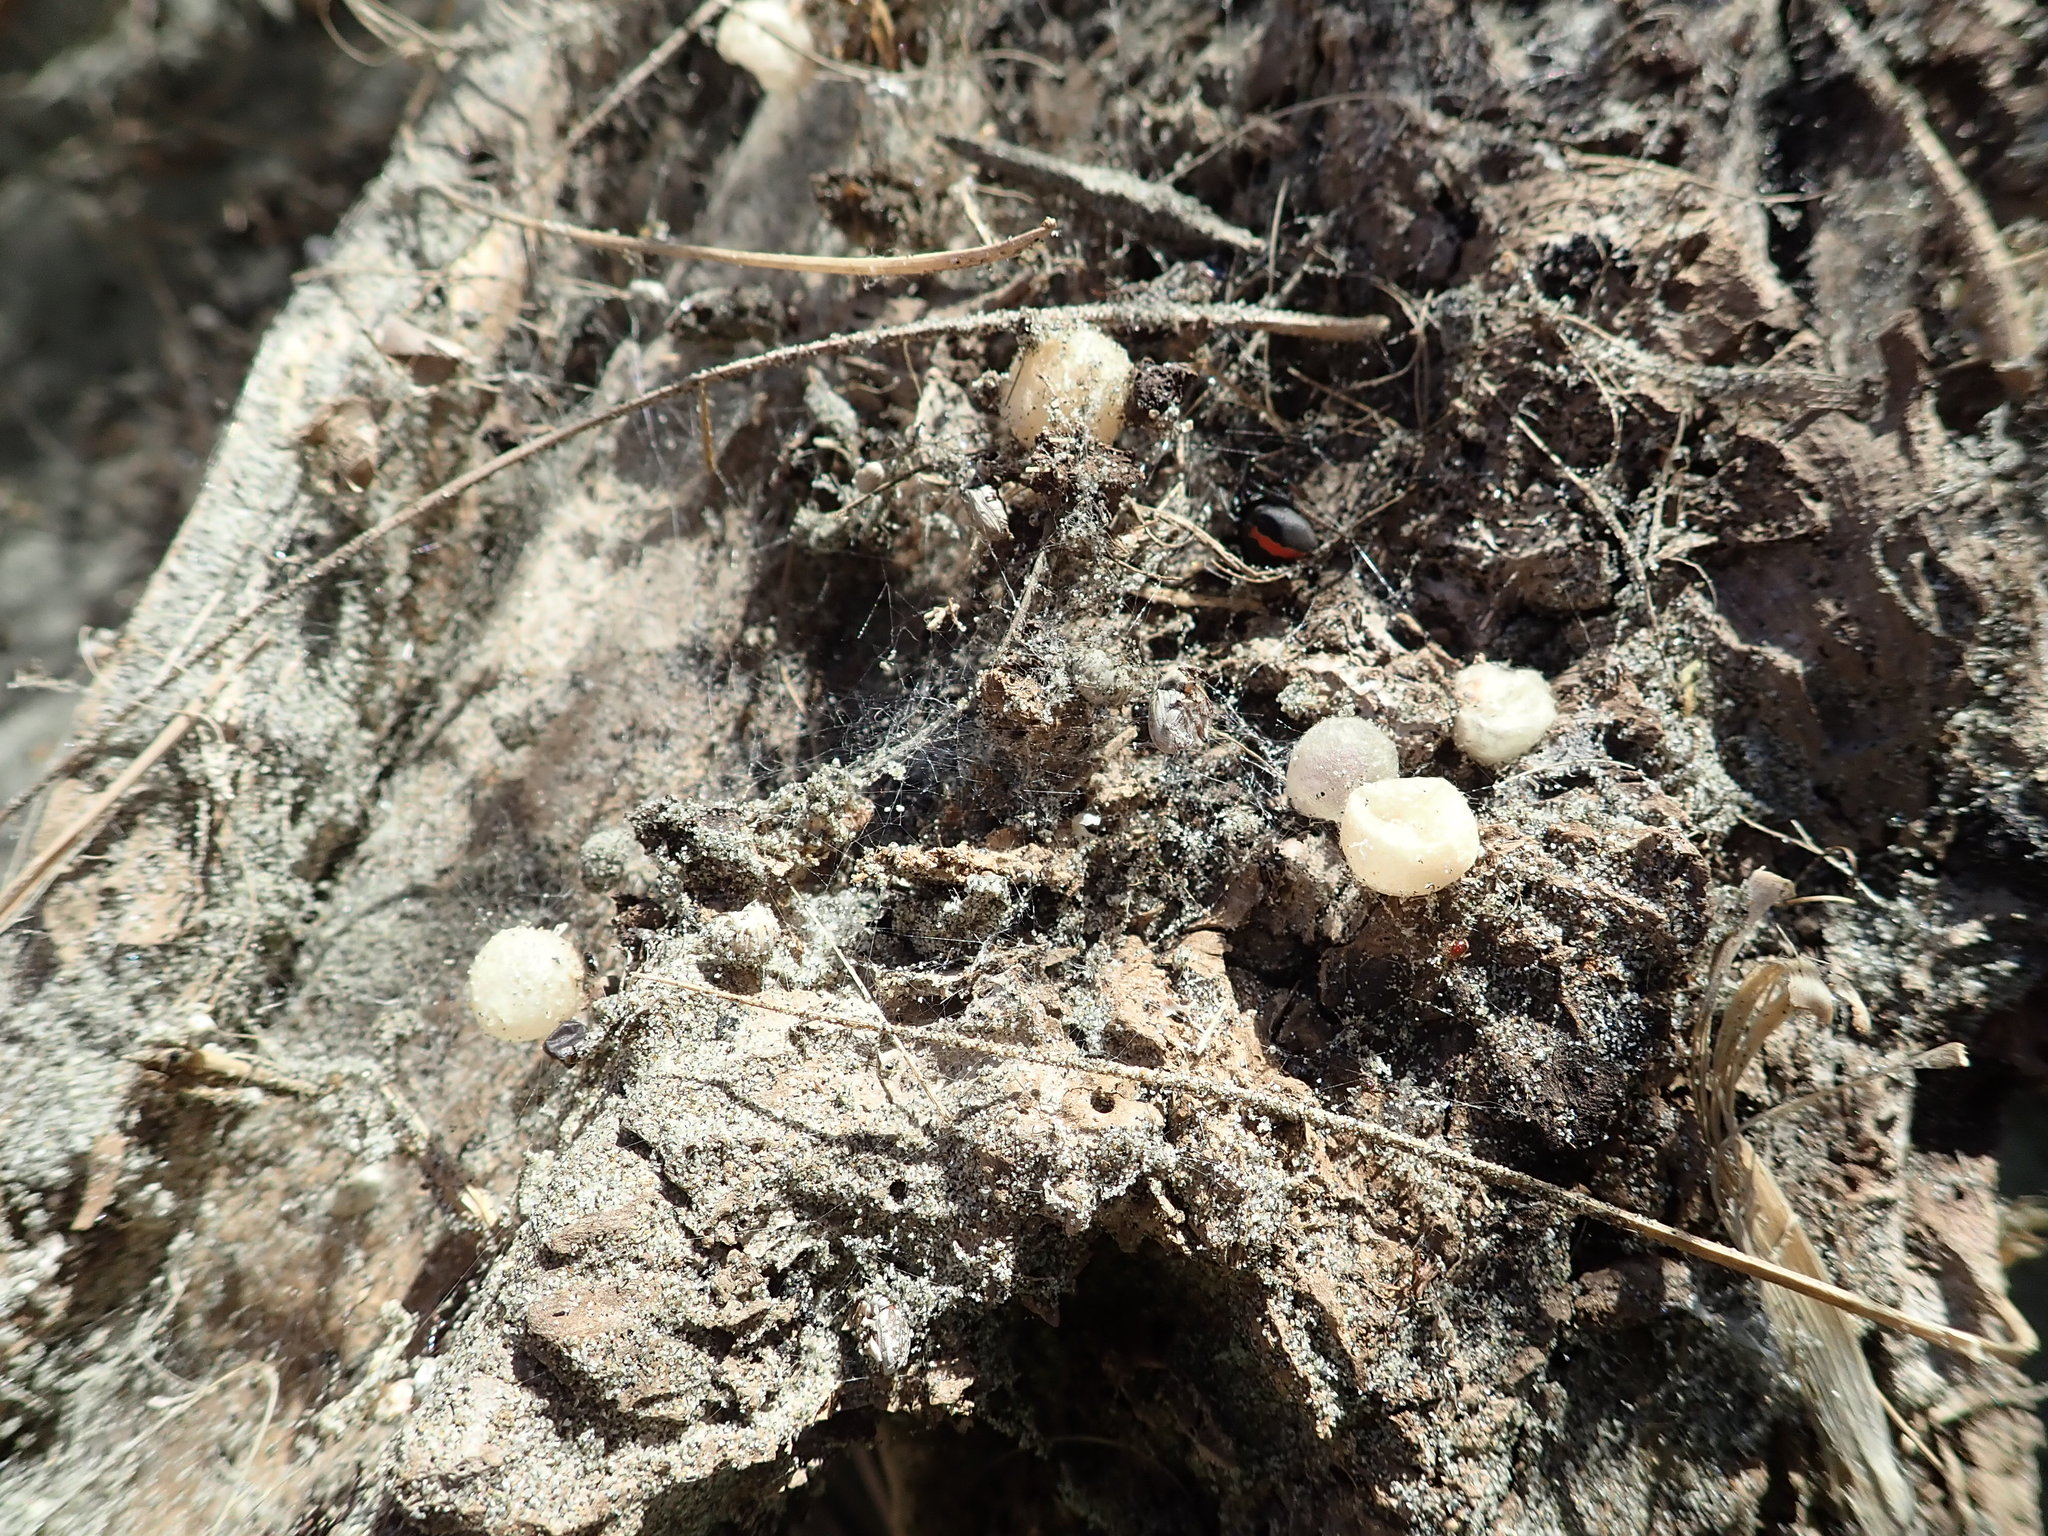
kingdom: Animalia
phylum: Arthropoda
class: Arachnida
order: Araneae
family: Theridiidae
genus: Latrodectus
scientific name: Latrodectus katipo
